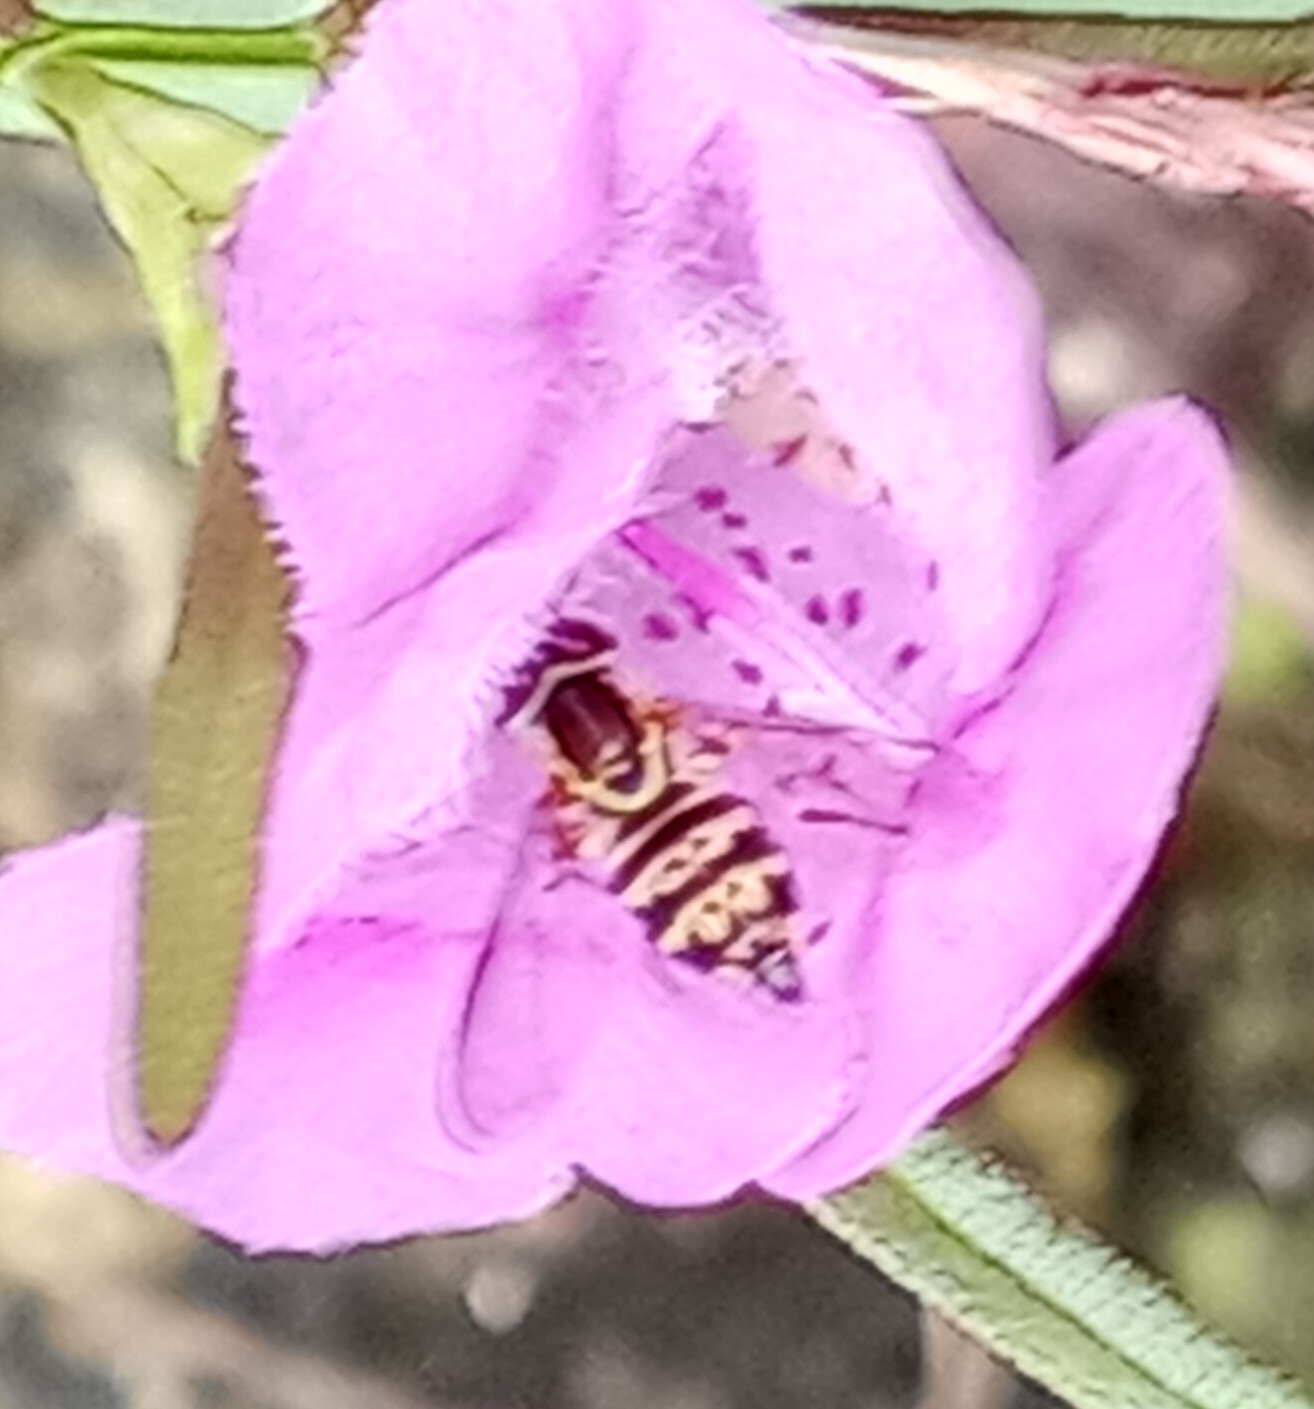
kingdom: Animalia
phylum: Arthropoda
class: Insecta
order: Diptera
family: Syrphidae
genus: Toxomerus
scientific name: Toxomerus geminatus
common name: Eastern calligrapher
